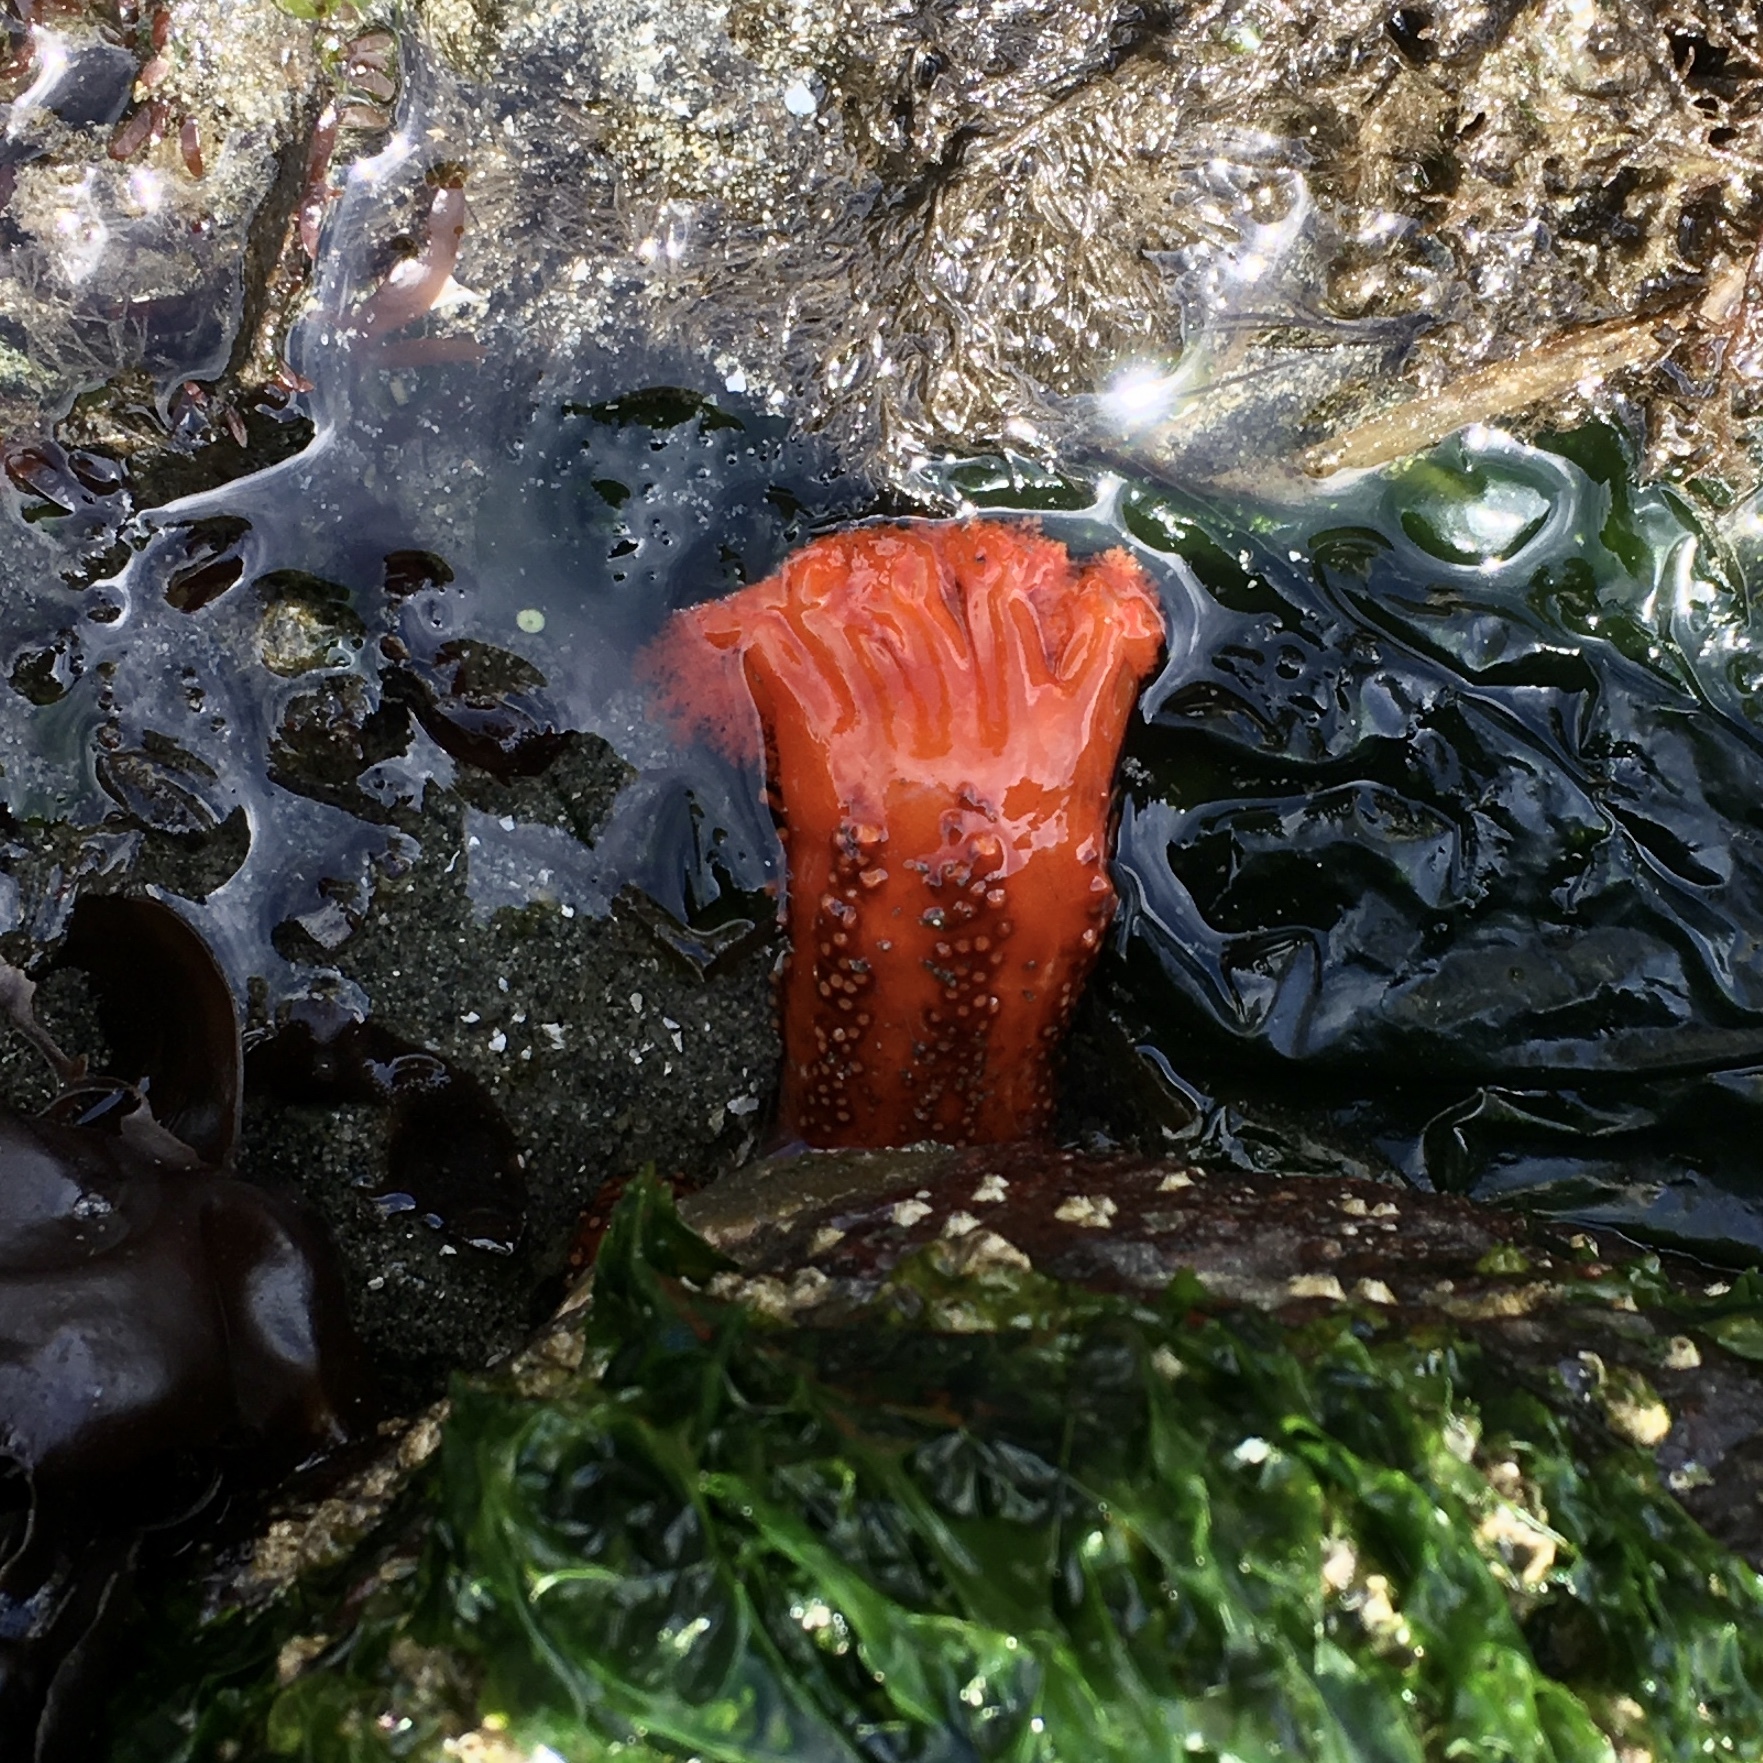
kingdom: Animalia
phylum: Echinodermata
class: Holothuroidea
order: Dendrochirotida
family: Cucumariidae
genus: Cucumaria
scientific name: Cucumaria miniata
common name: Orange sea cucumber
